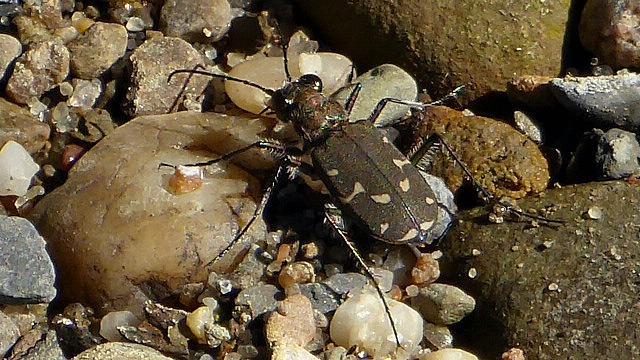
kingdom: Animalia
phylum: Arthropoda
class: Insecta
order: Coleoptera
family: Carabidae
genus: Cicindela
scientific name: Cicindela duodecimguttata
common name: Twelve-spotted tiger beetle
